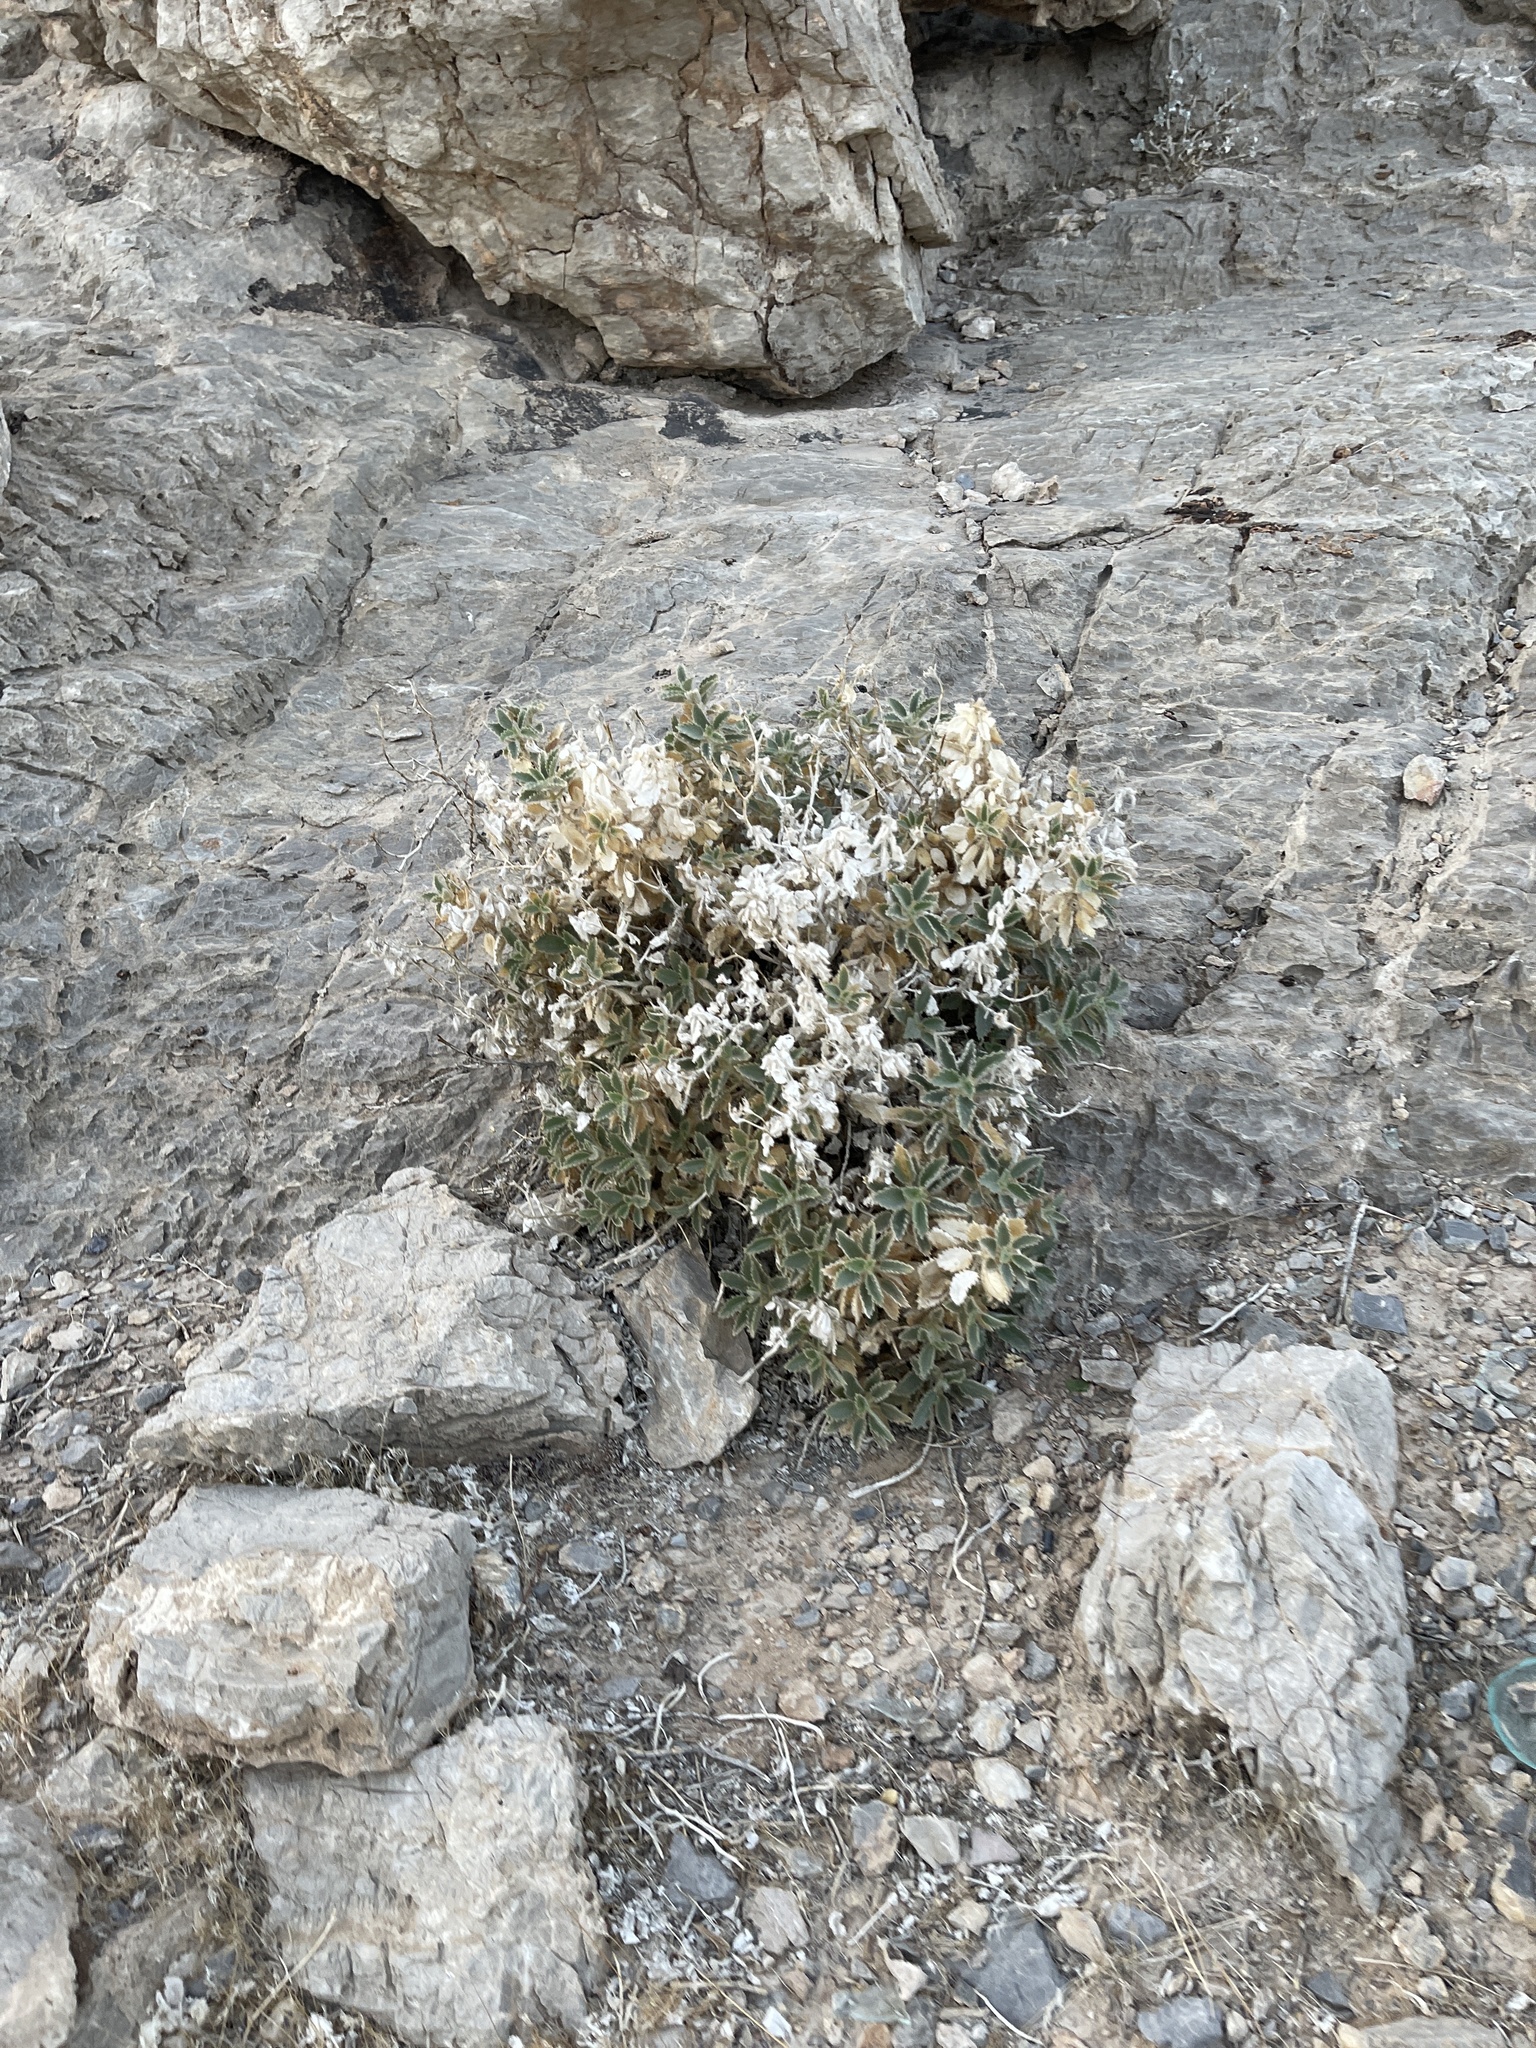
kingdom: Plantae
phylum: Tracheophyta
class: Magnoliopsida
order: Cornales
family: Loasaceae
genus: Eucnide
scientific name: Eucnide urens
